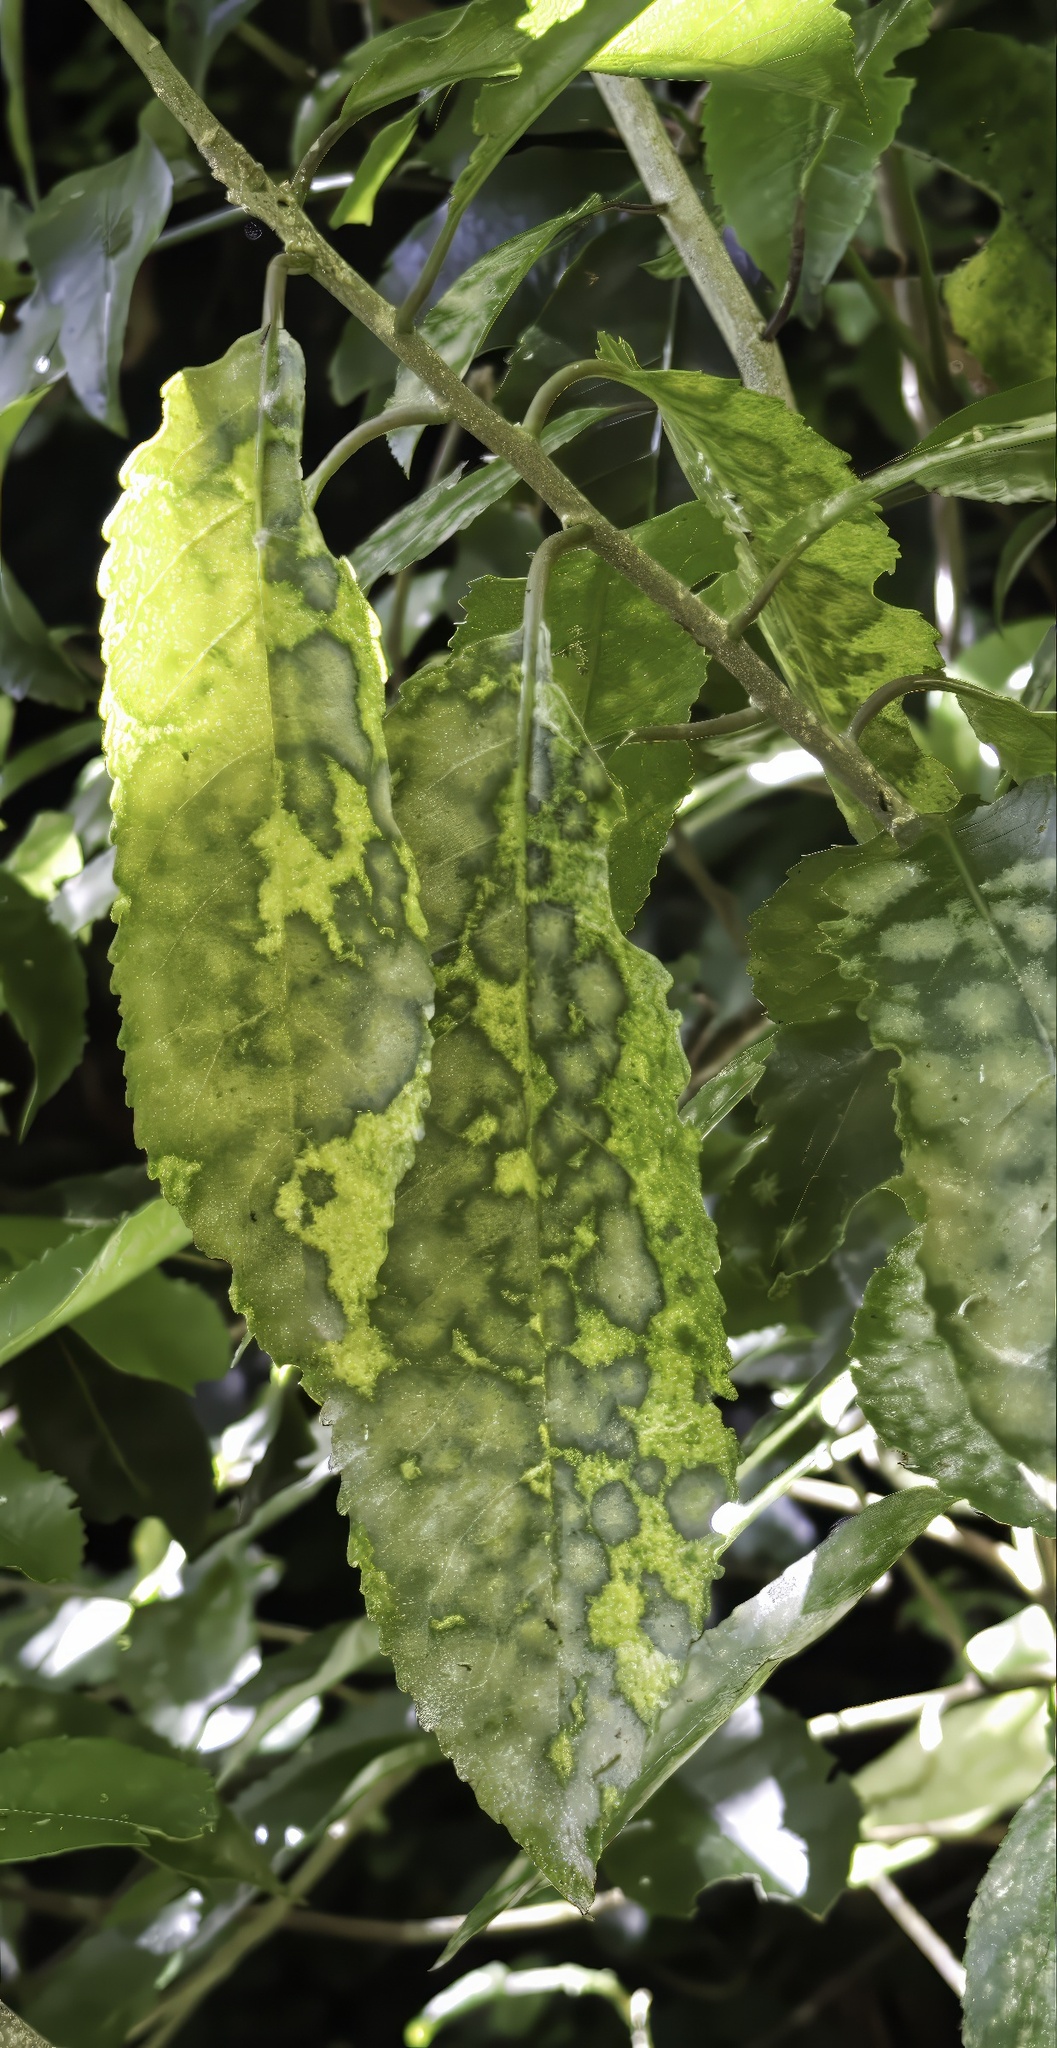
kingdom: Plantae
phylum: Chlorophyta
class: Ulvophyceae
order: Trentepohliales
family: Trentepohliaceae
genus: Cephaleuros
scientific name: Cephaleuros
